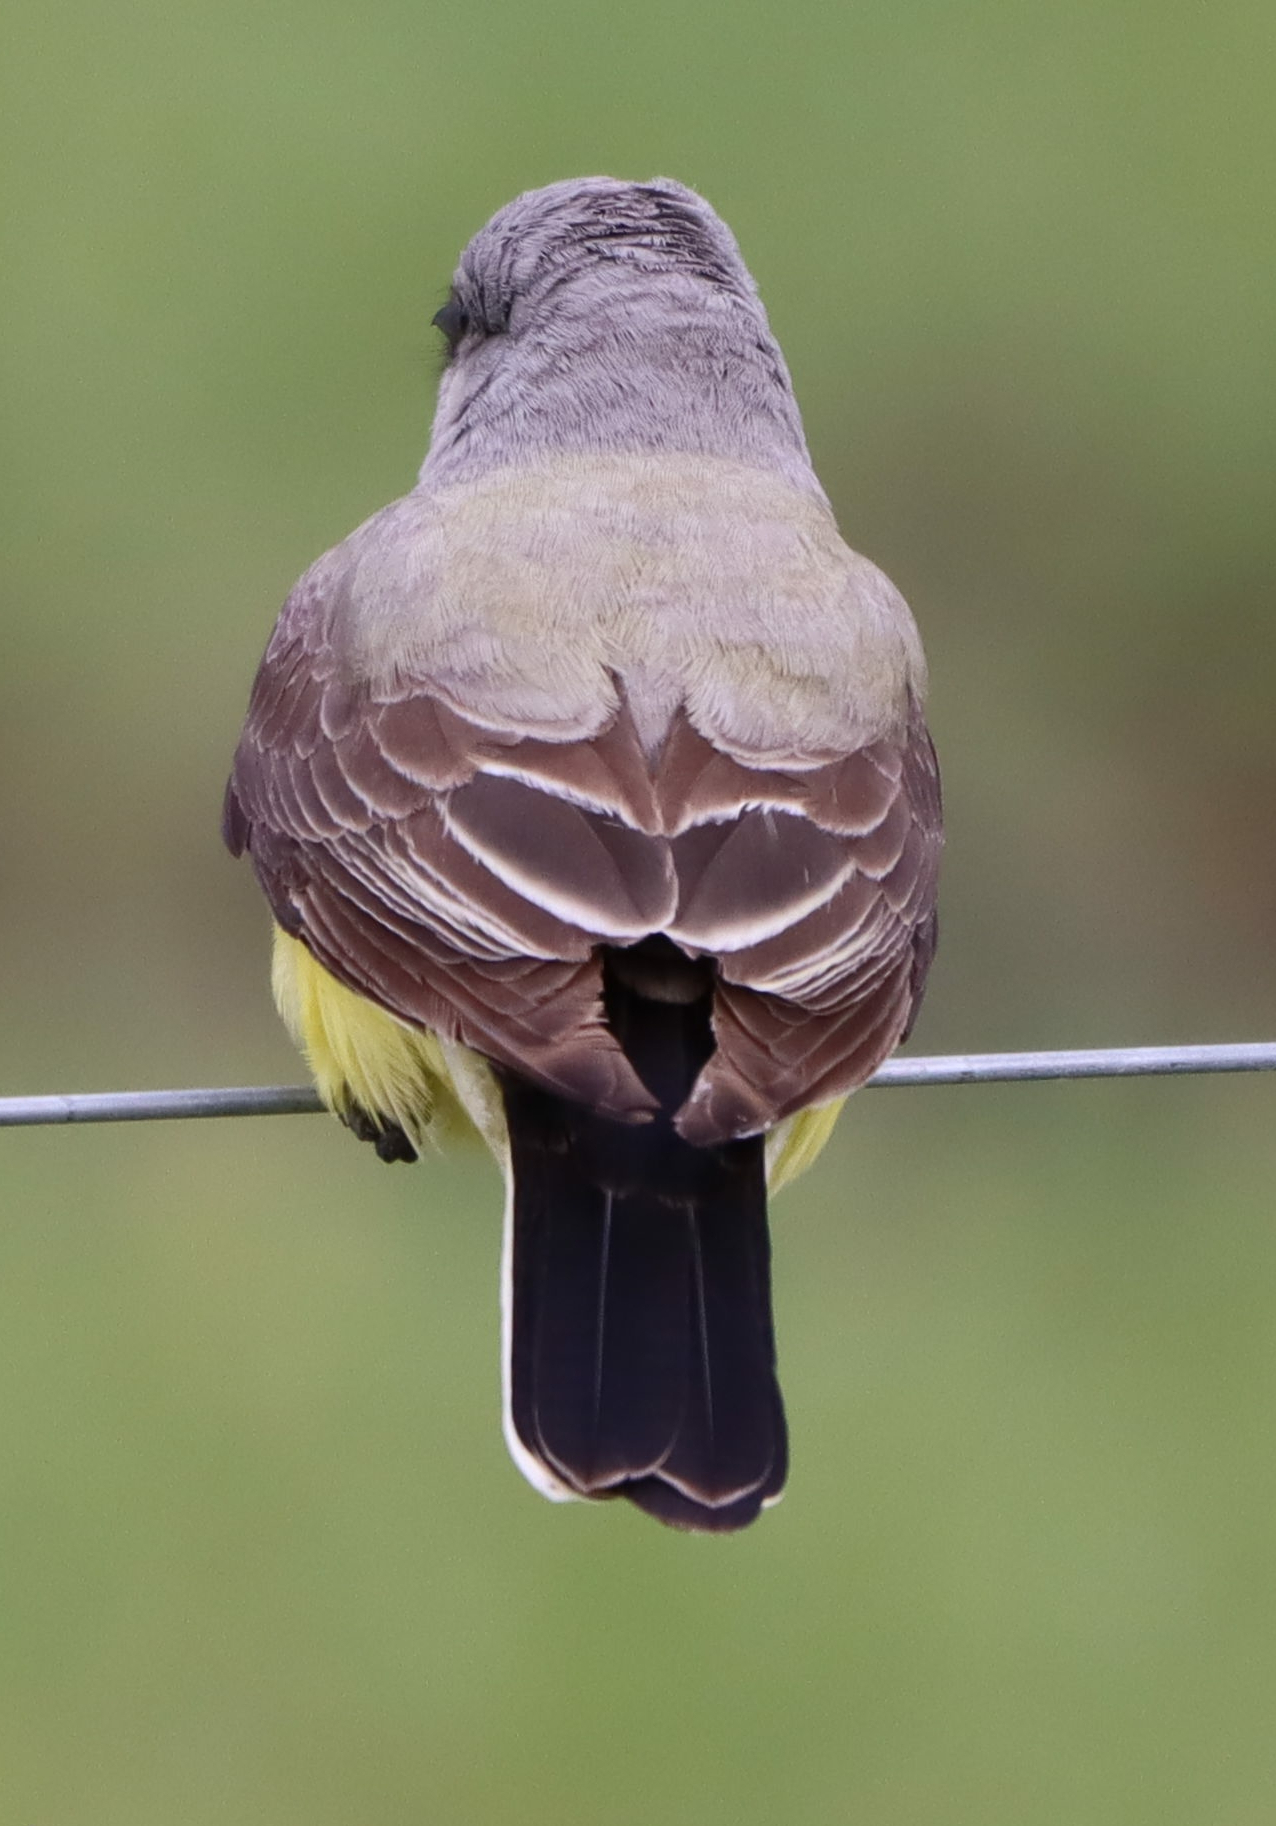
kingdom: Animalia
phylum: Chordata
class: Aves
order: Passeriformes
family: Tyrannidae
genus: Tyrannus
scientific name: Tyrannus verticalis
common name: Western kingbird
